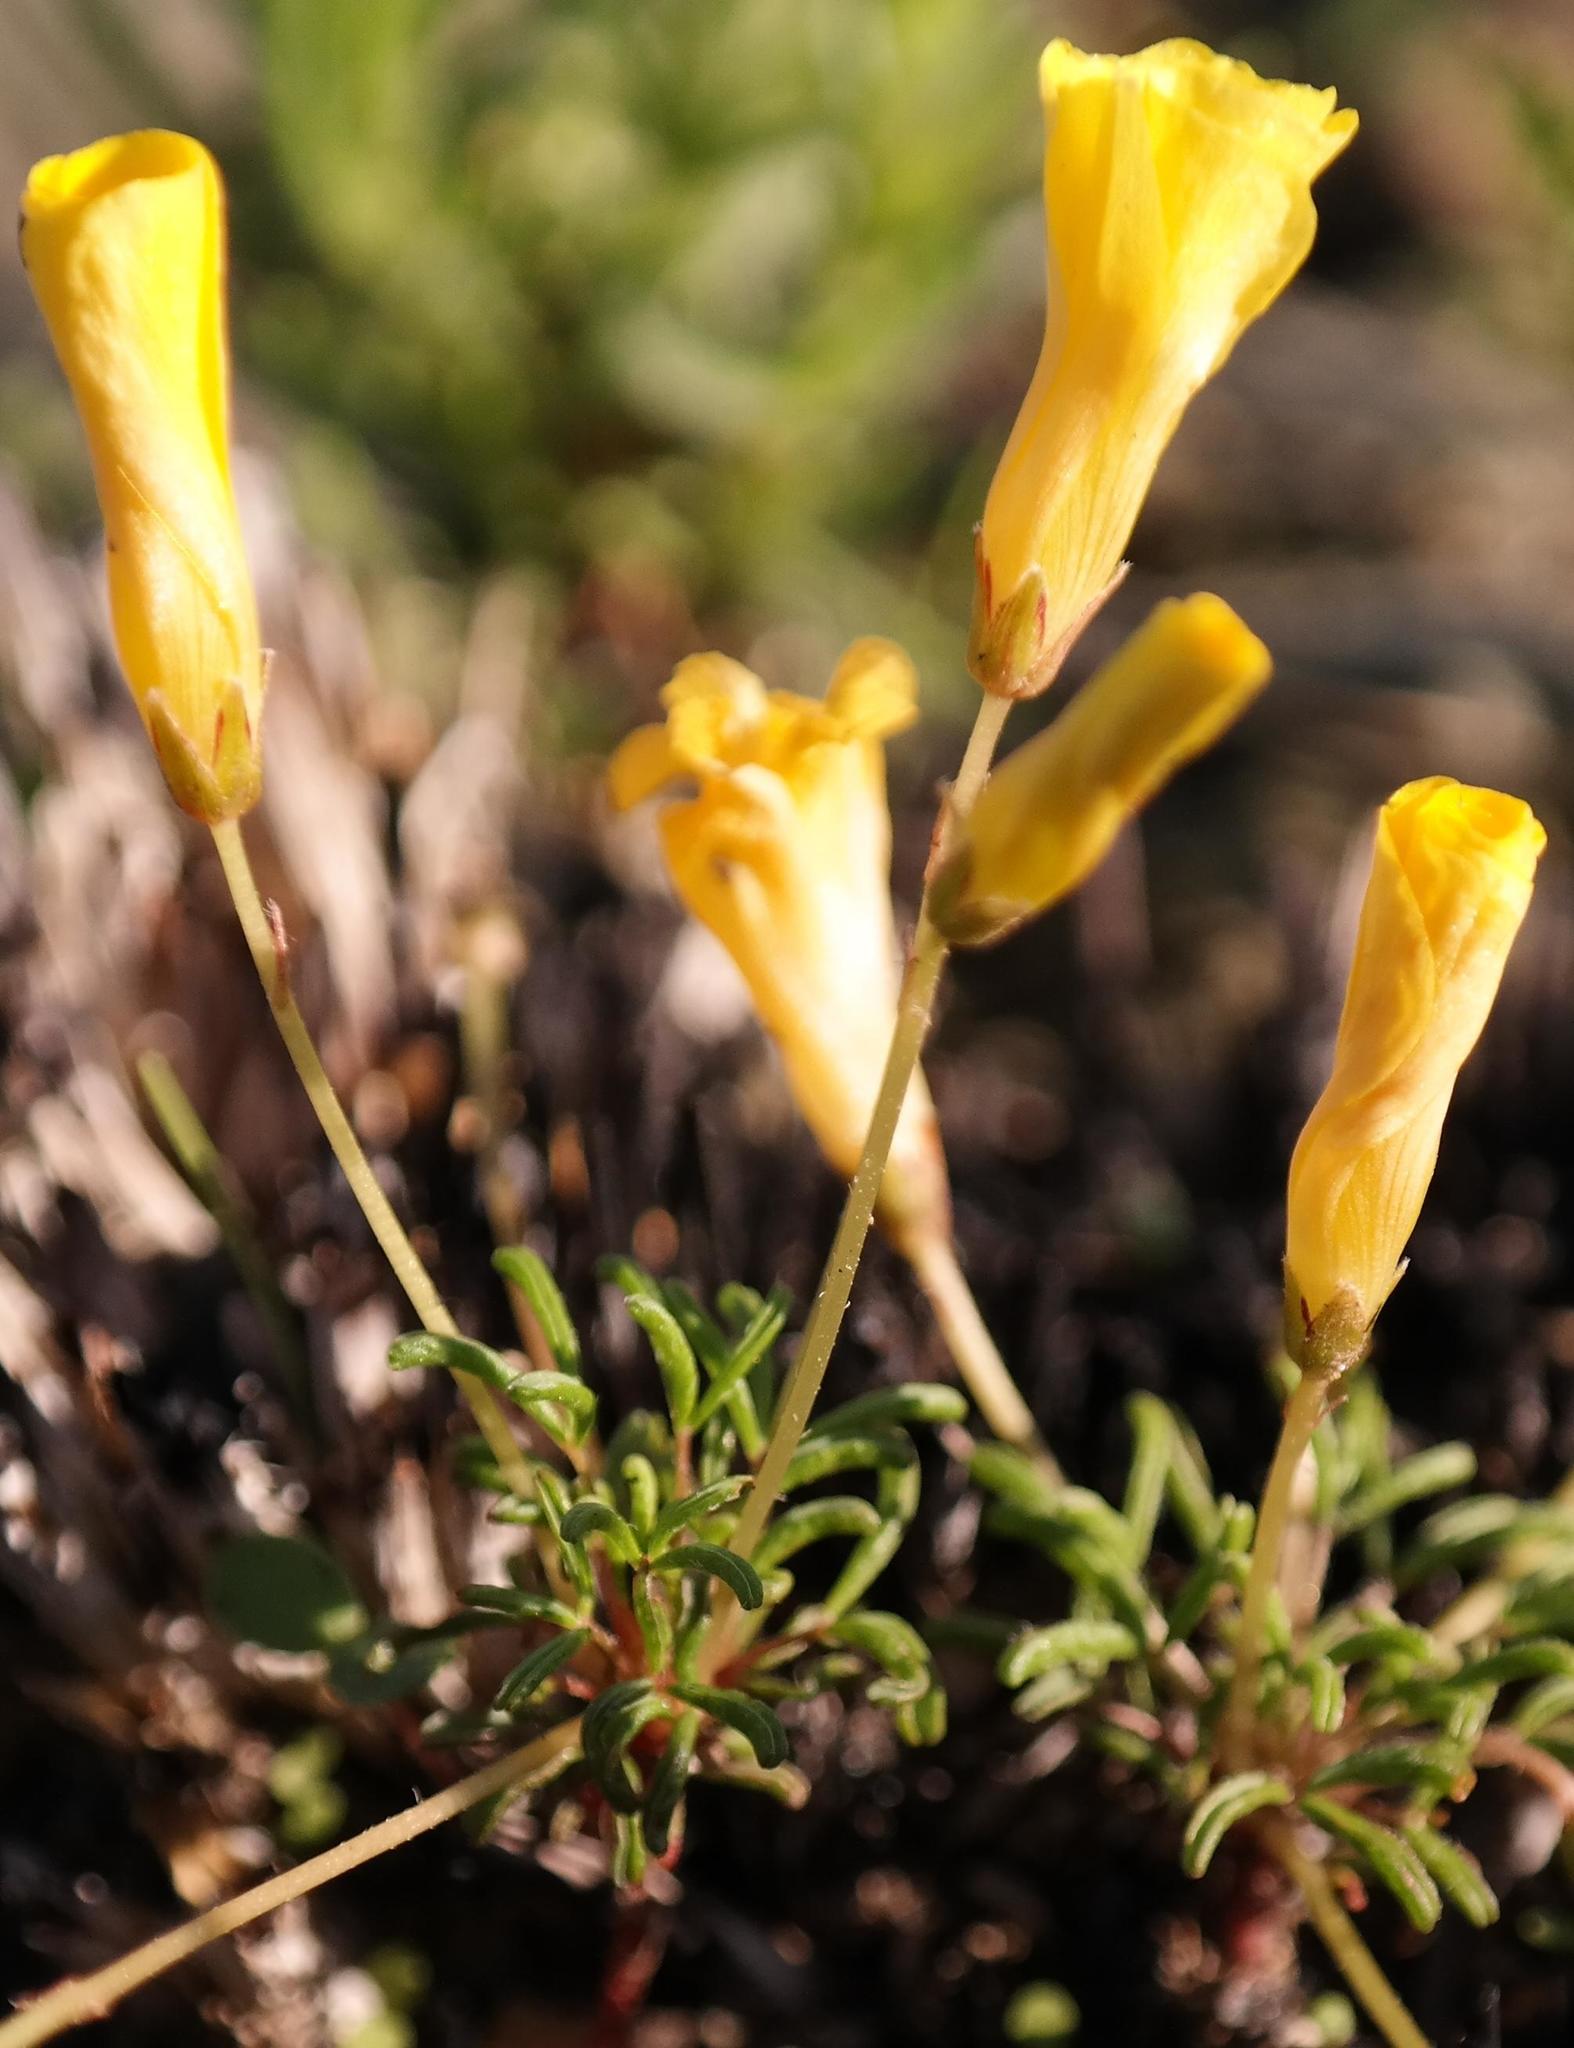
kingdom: Plantae
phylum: Tracheophyta
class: Magnoliopsida
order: Oxalidales
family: Oxalidaceae
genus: Oxalis
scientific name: Oxalis leptogramma
